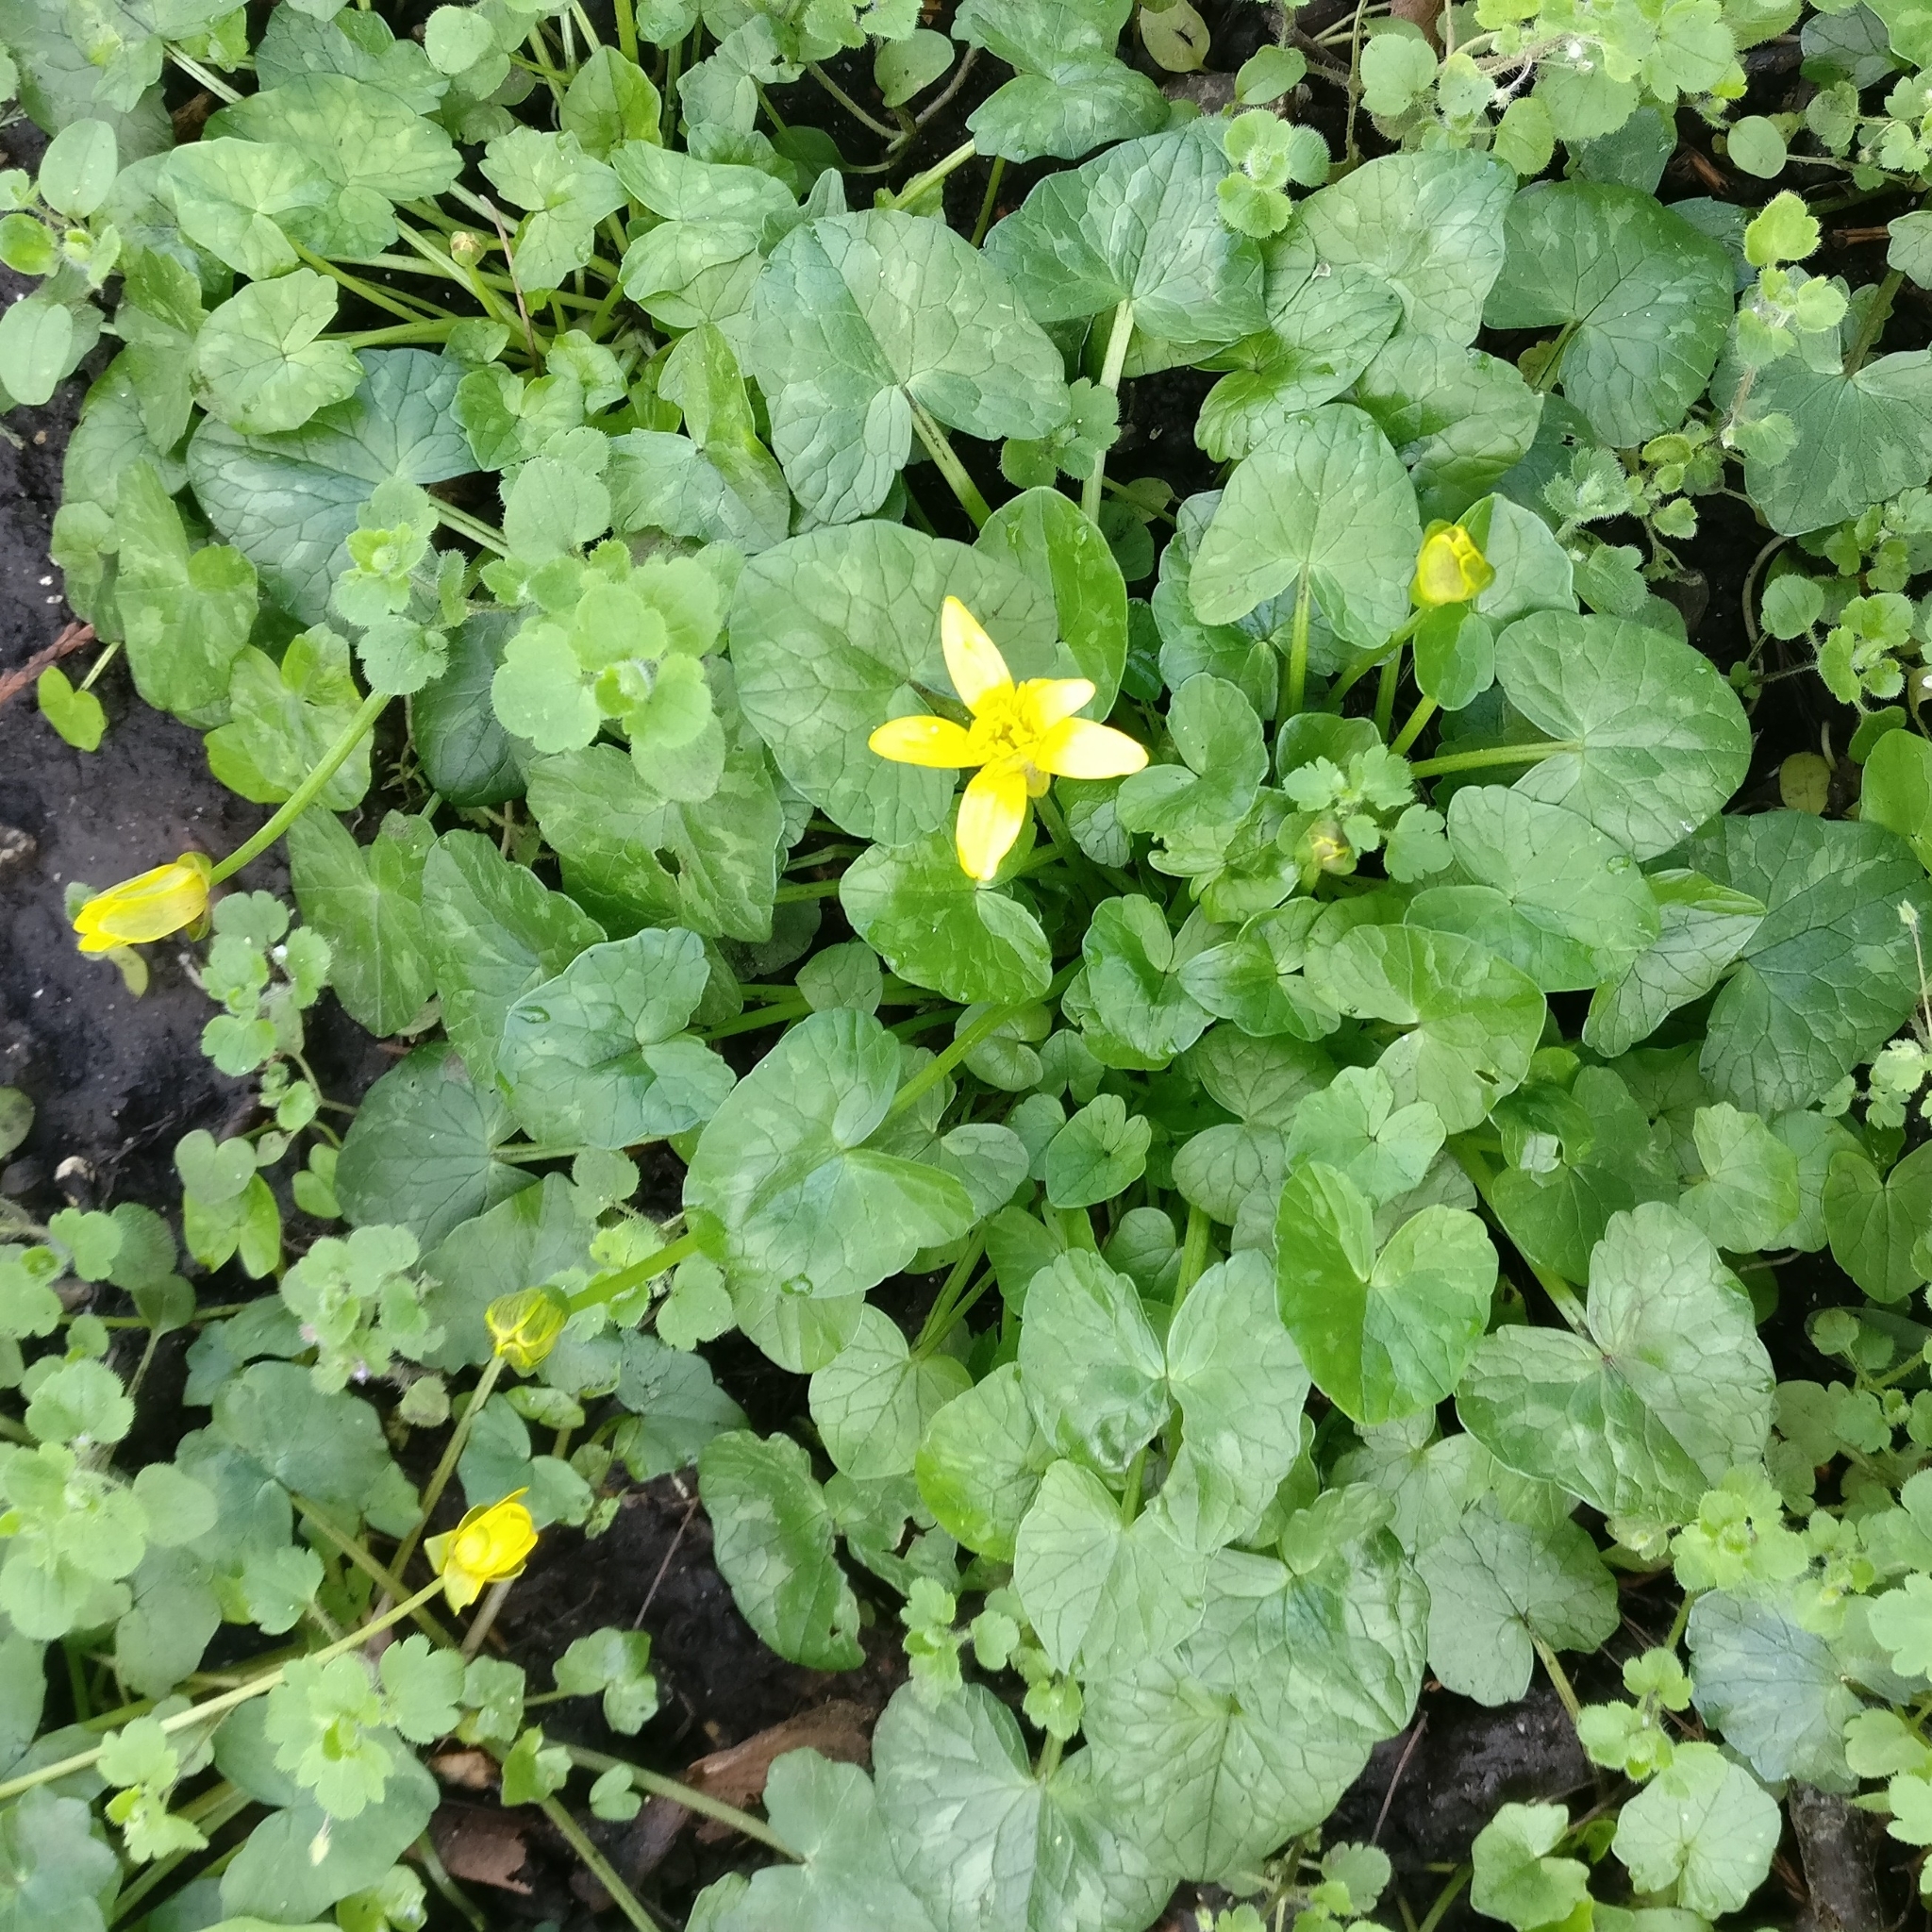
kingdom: Plantae
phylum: Tracheophyta
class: Magnoliopsida
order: Ranunculales
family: Ranunculaceae
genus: Ficaria
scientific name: Ficaria verna
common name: Lesser celandine
